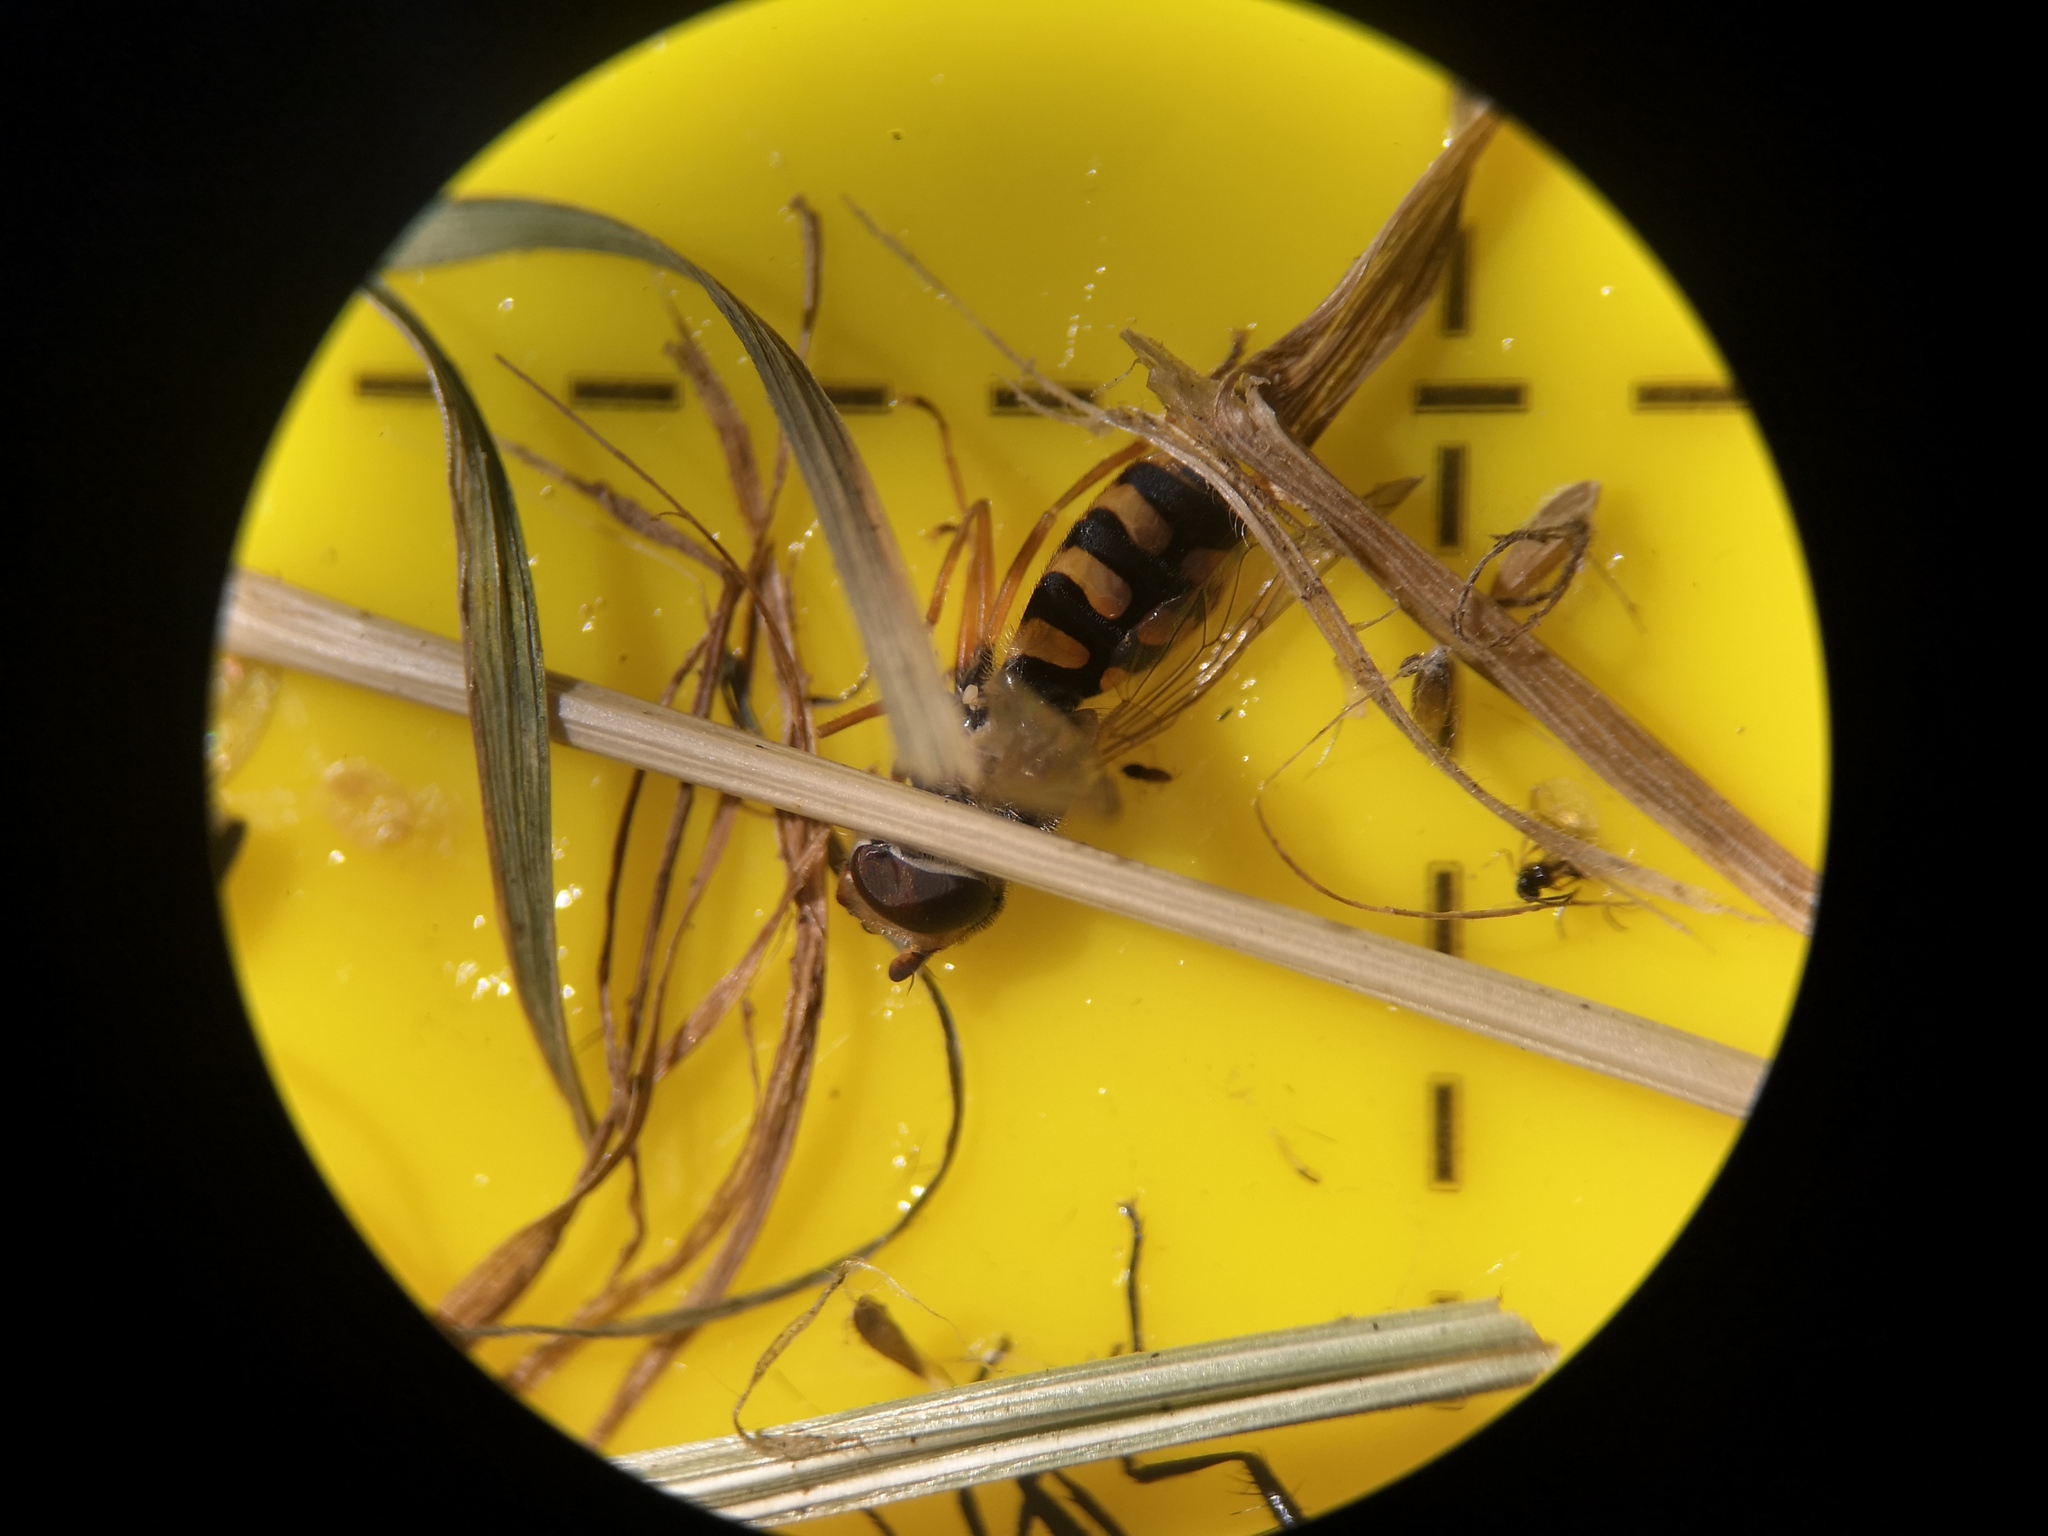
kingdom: Animalia
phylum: Arthropoda
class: Insecta
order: Diptera
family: Syrphidae
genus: Eupeodes
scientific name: Eupeodes corollae
